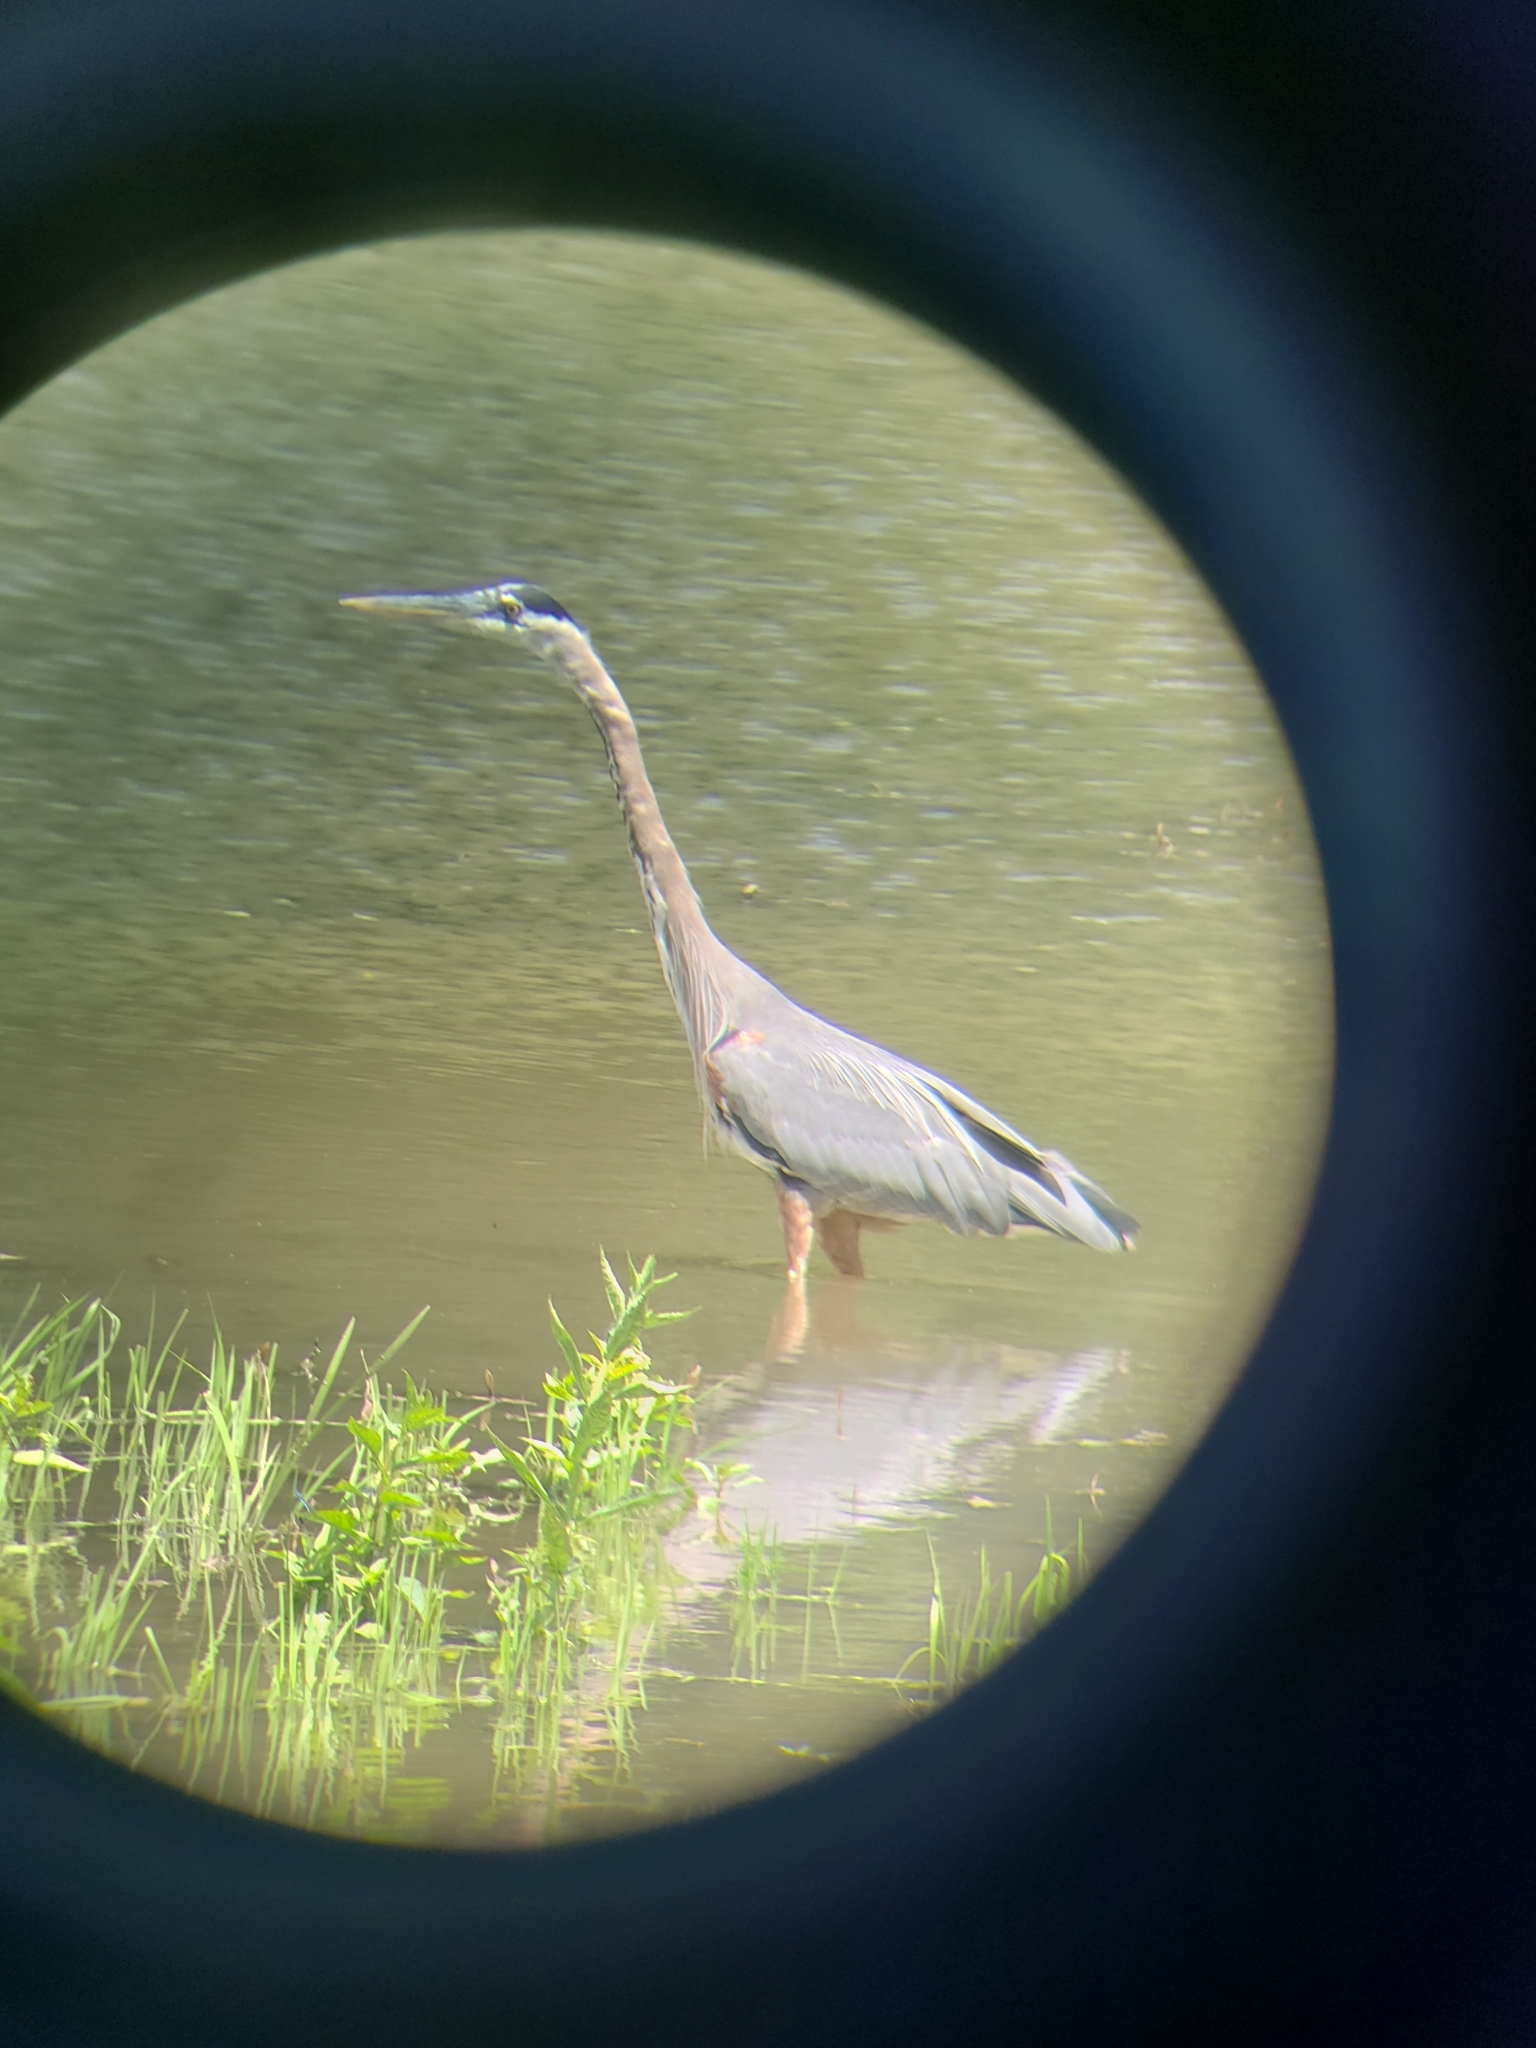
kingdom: Animalia
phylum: Chordata
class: Aves
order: Pelecaniformes
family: Ardeidae
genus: Ardea
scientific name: Ardea herodias
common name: Great blue heron
